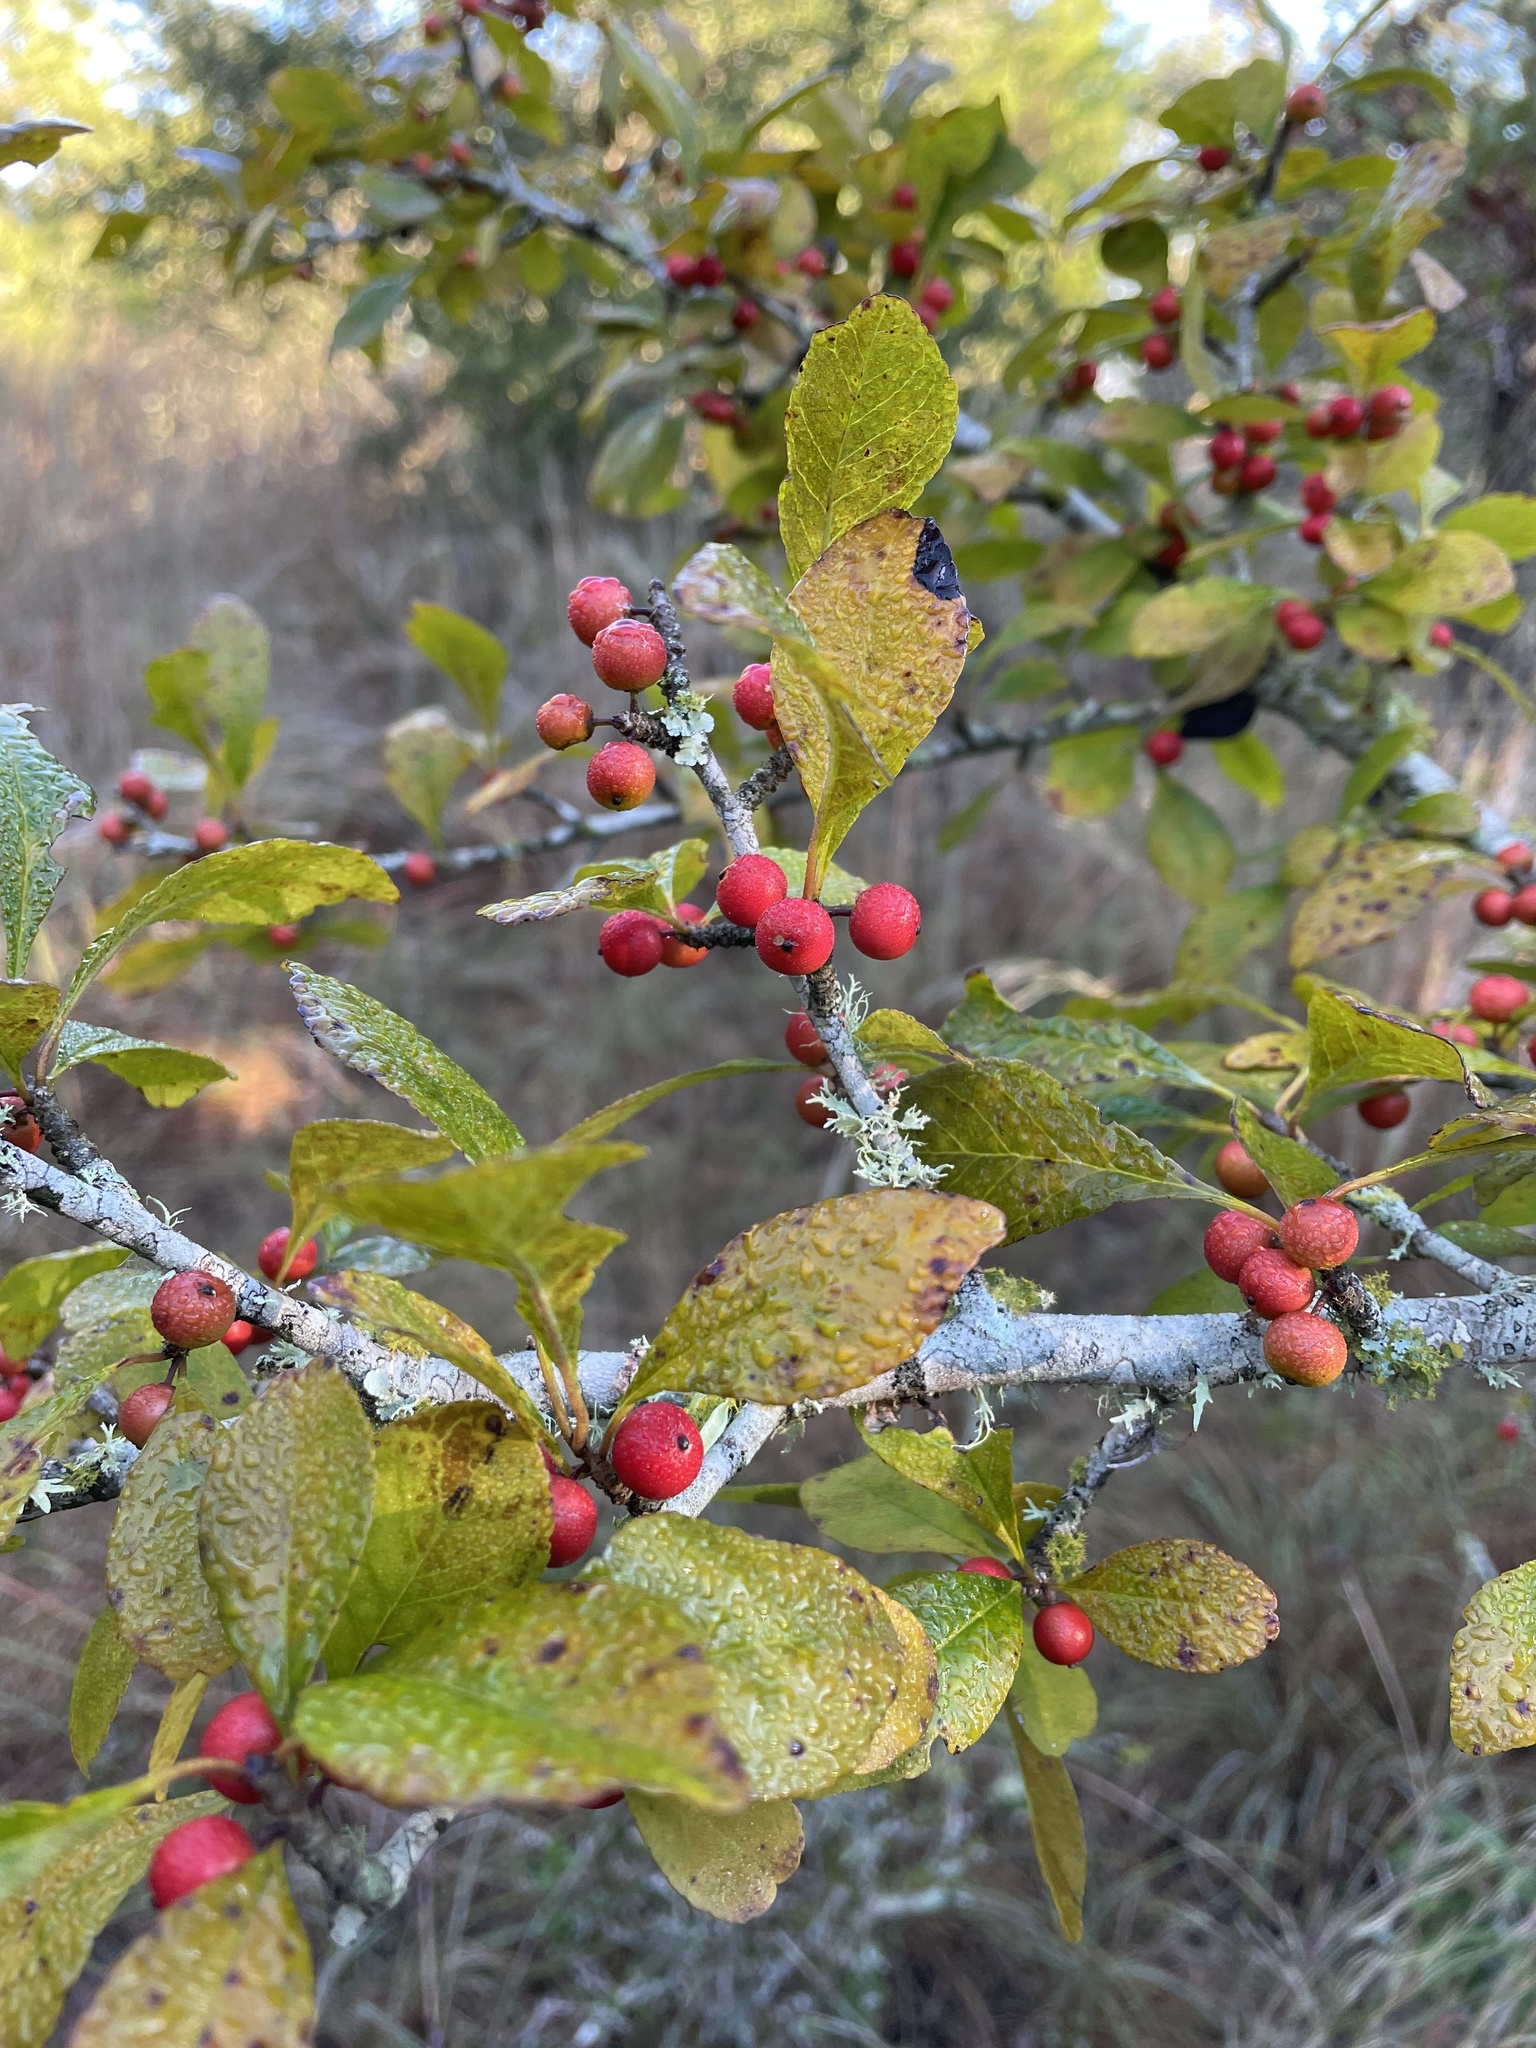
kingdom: Plantae
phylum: Tracheophyta
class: Magnoliopsida
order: Aquifoliales
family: Aquifoliaceae
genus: Ilex
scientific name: Ilex decidua
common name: Possum-haw
